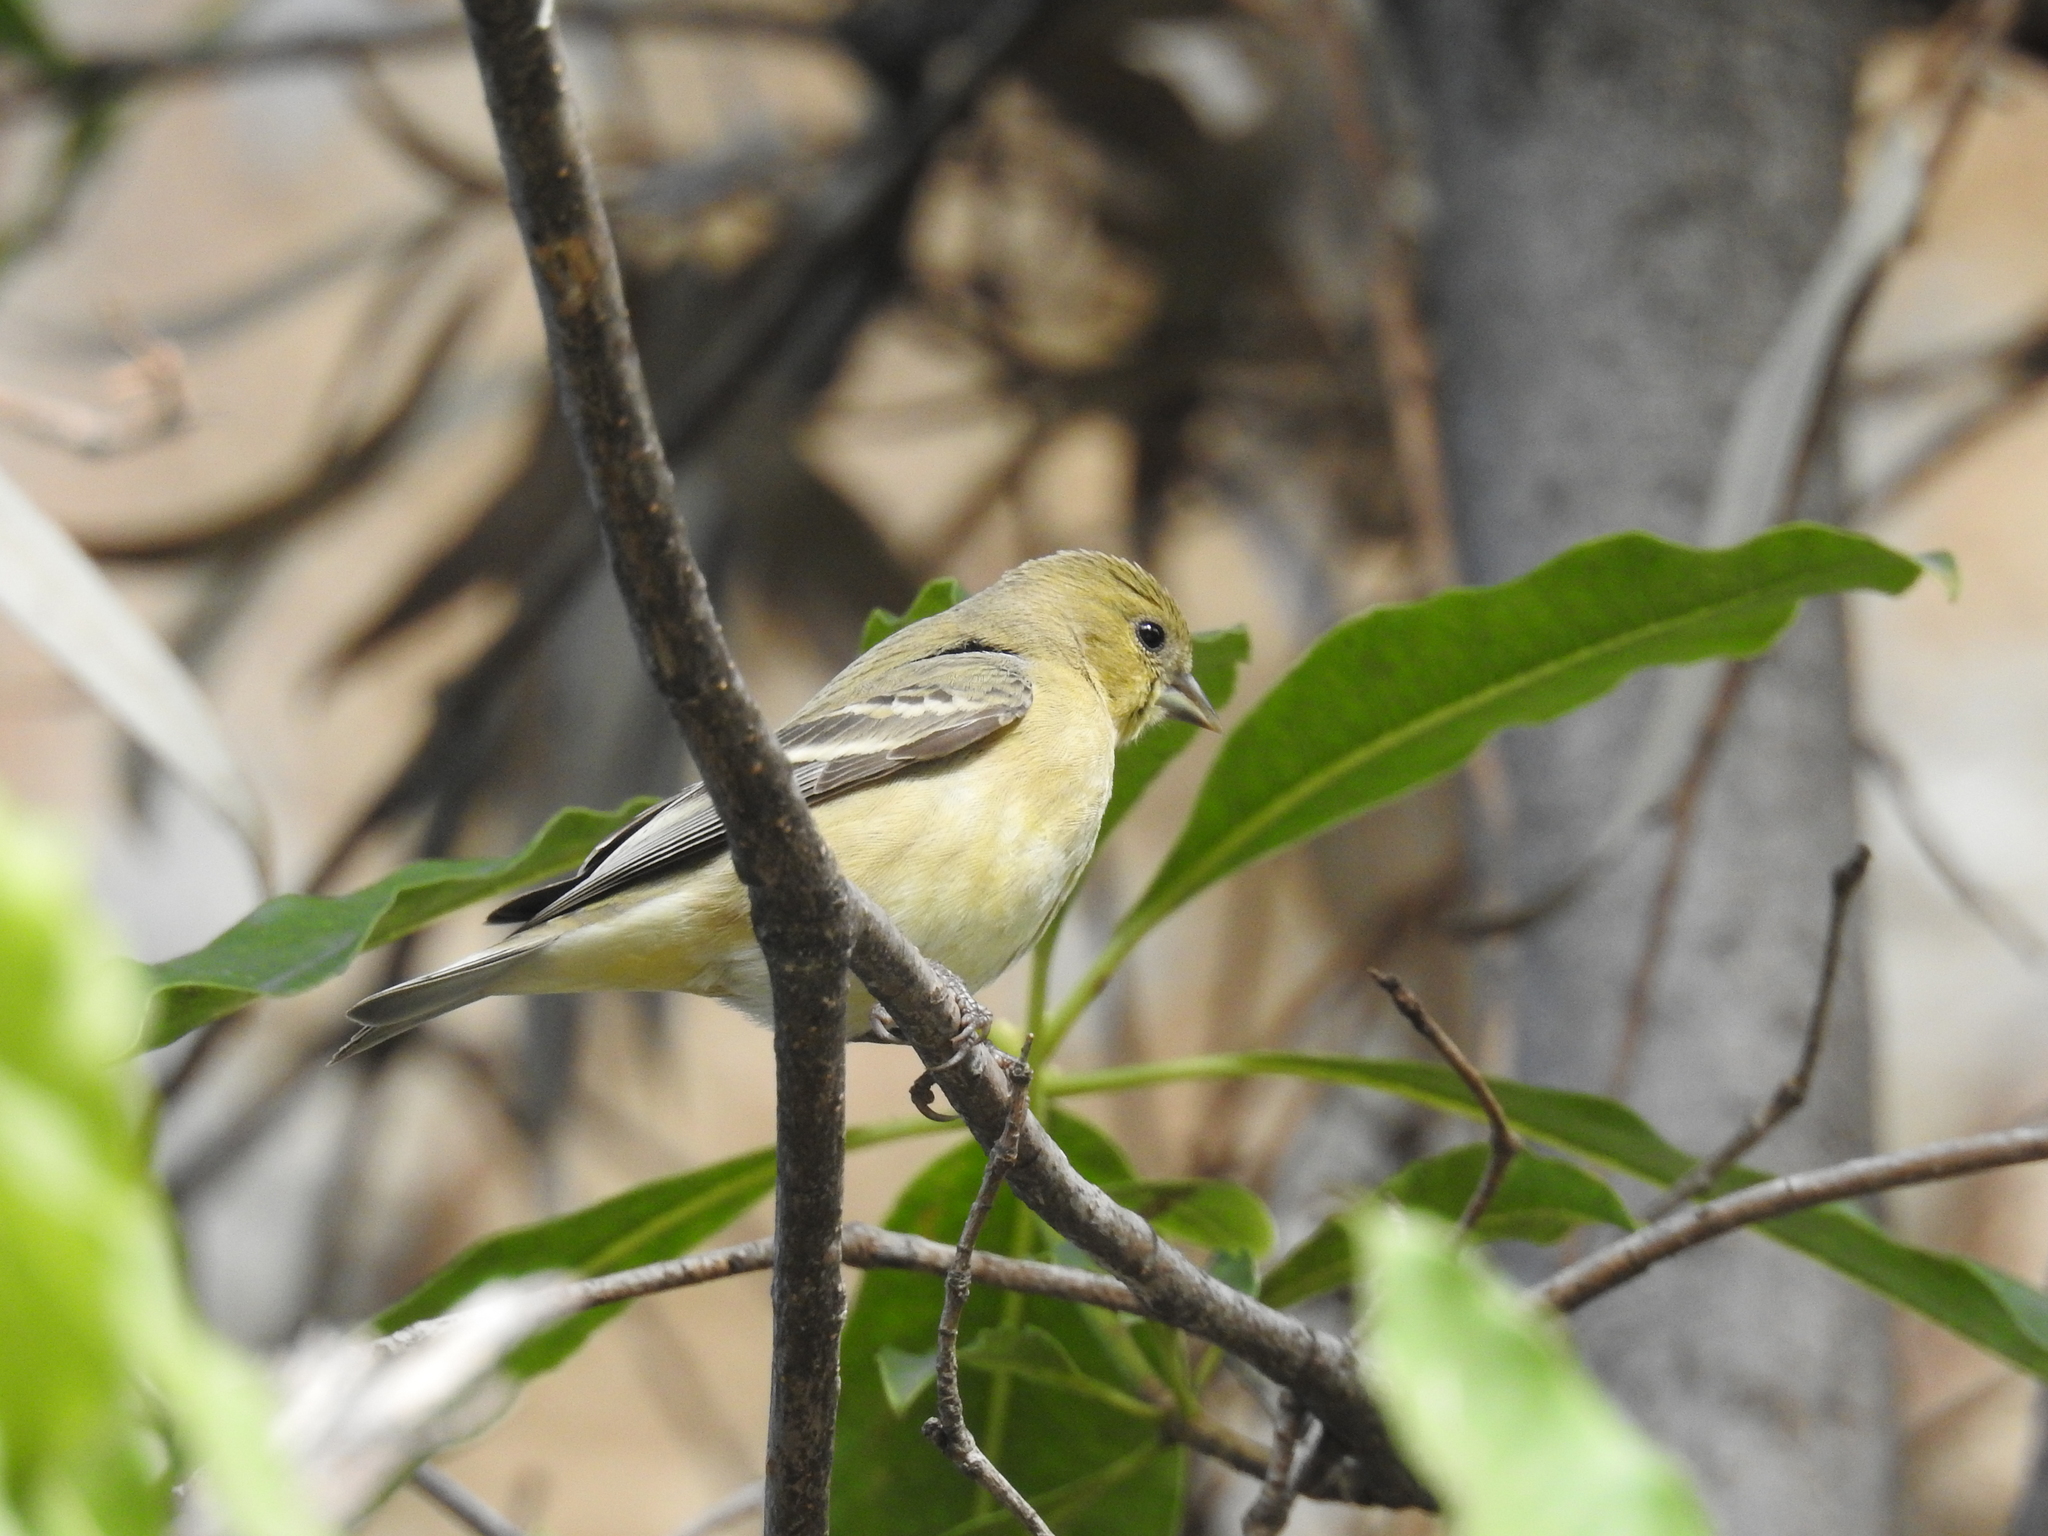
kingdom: Animalia
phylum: Chordata
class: Aves
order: Passeriformes
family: Fringillidae
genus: Spinus
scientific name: Spinus psaltria
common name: Lesser goldfinch
